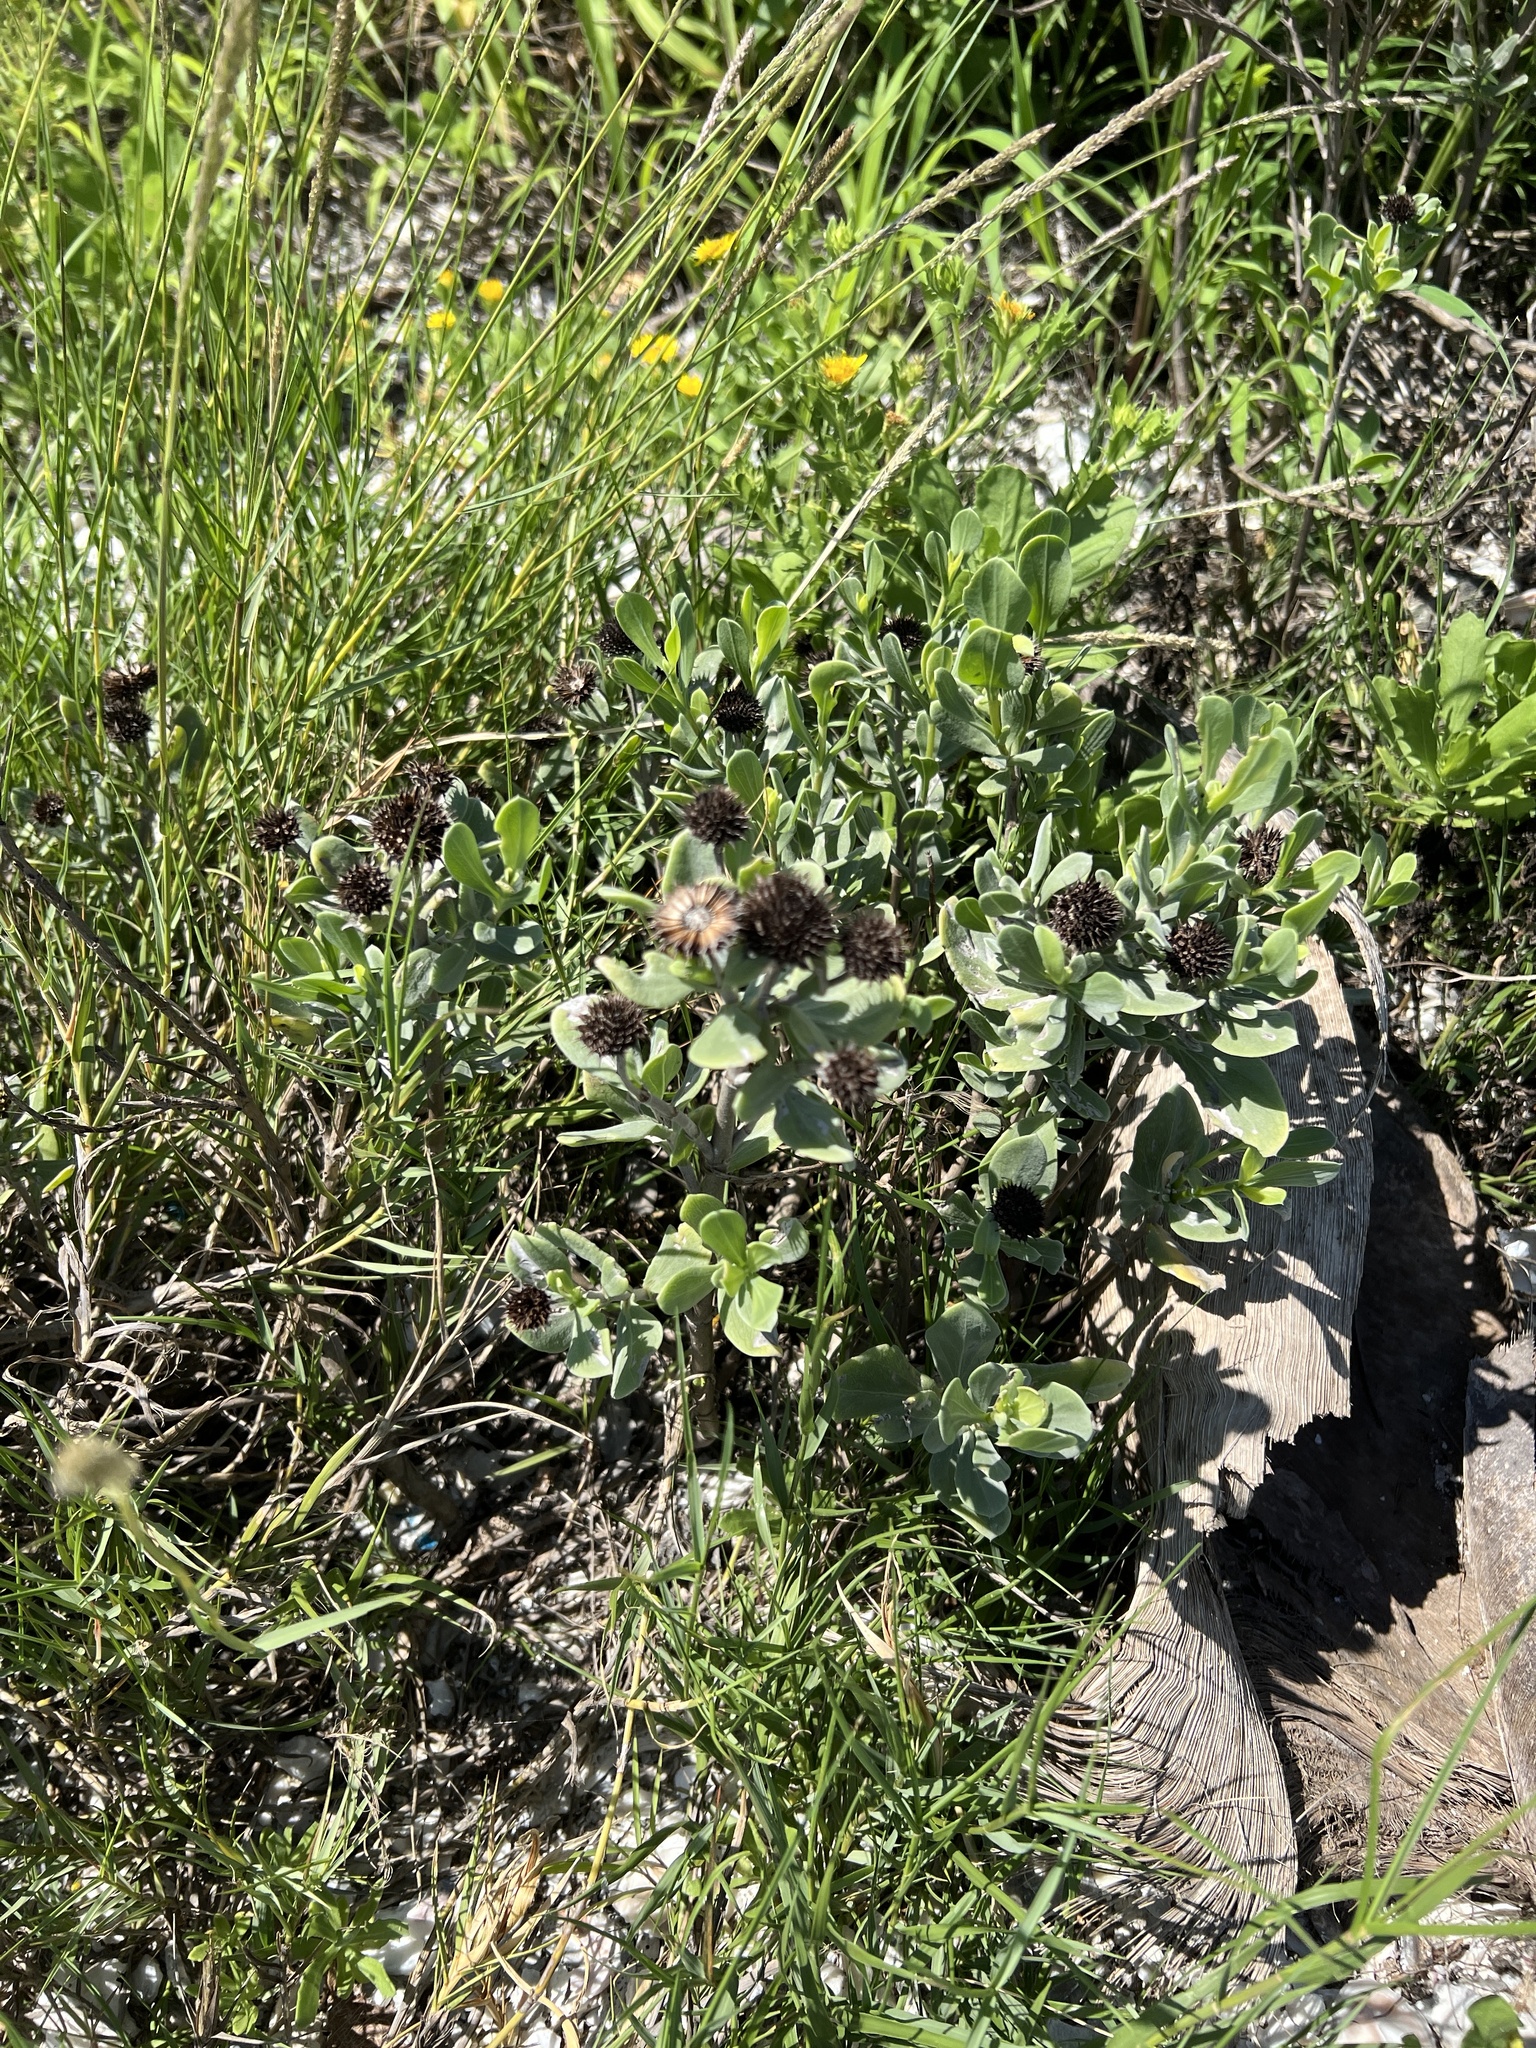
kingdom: Plantae
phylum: Tracheophyta
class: Magnoliopsida
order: Asterales
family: Asteraceae
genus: Borrichia
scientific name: Borrichia frutescens
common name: Sea oxeye
